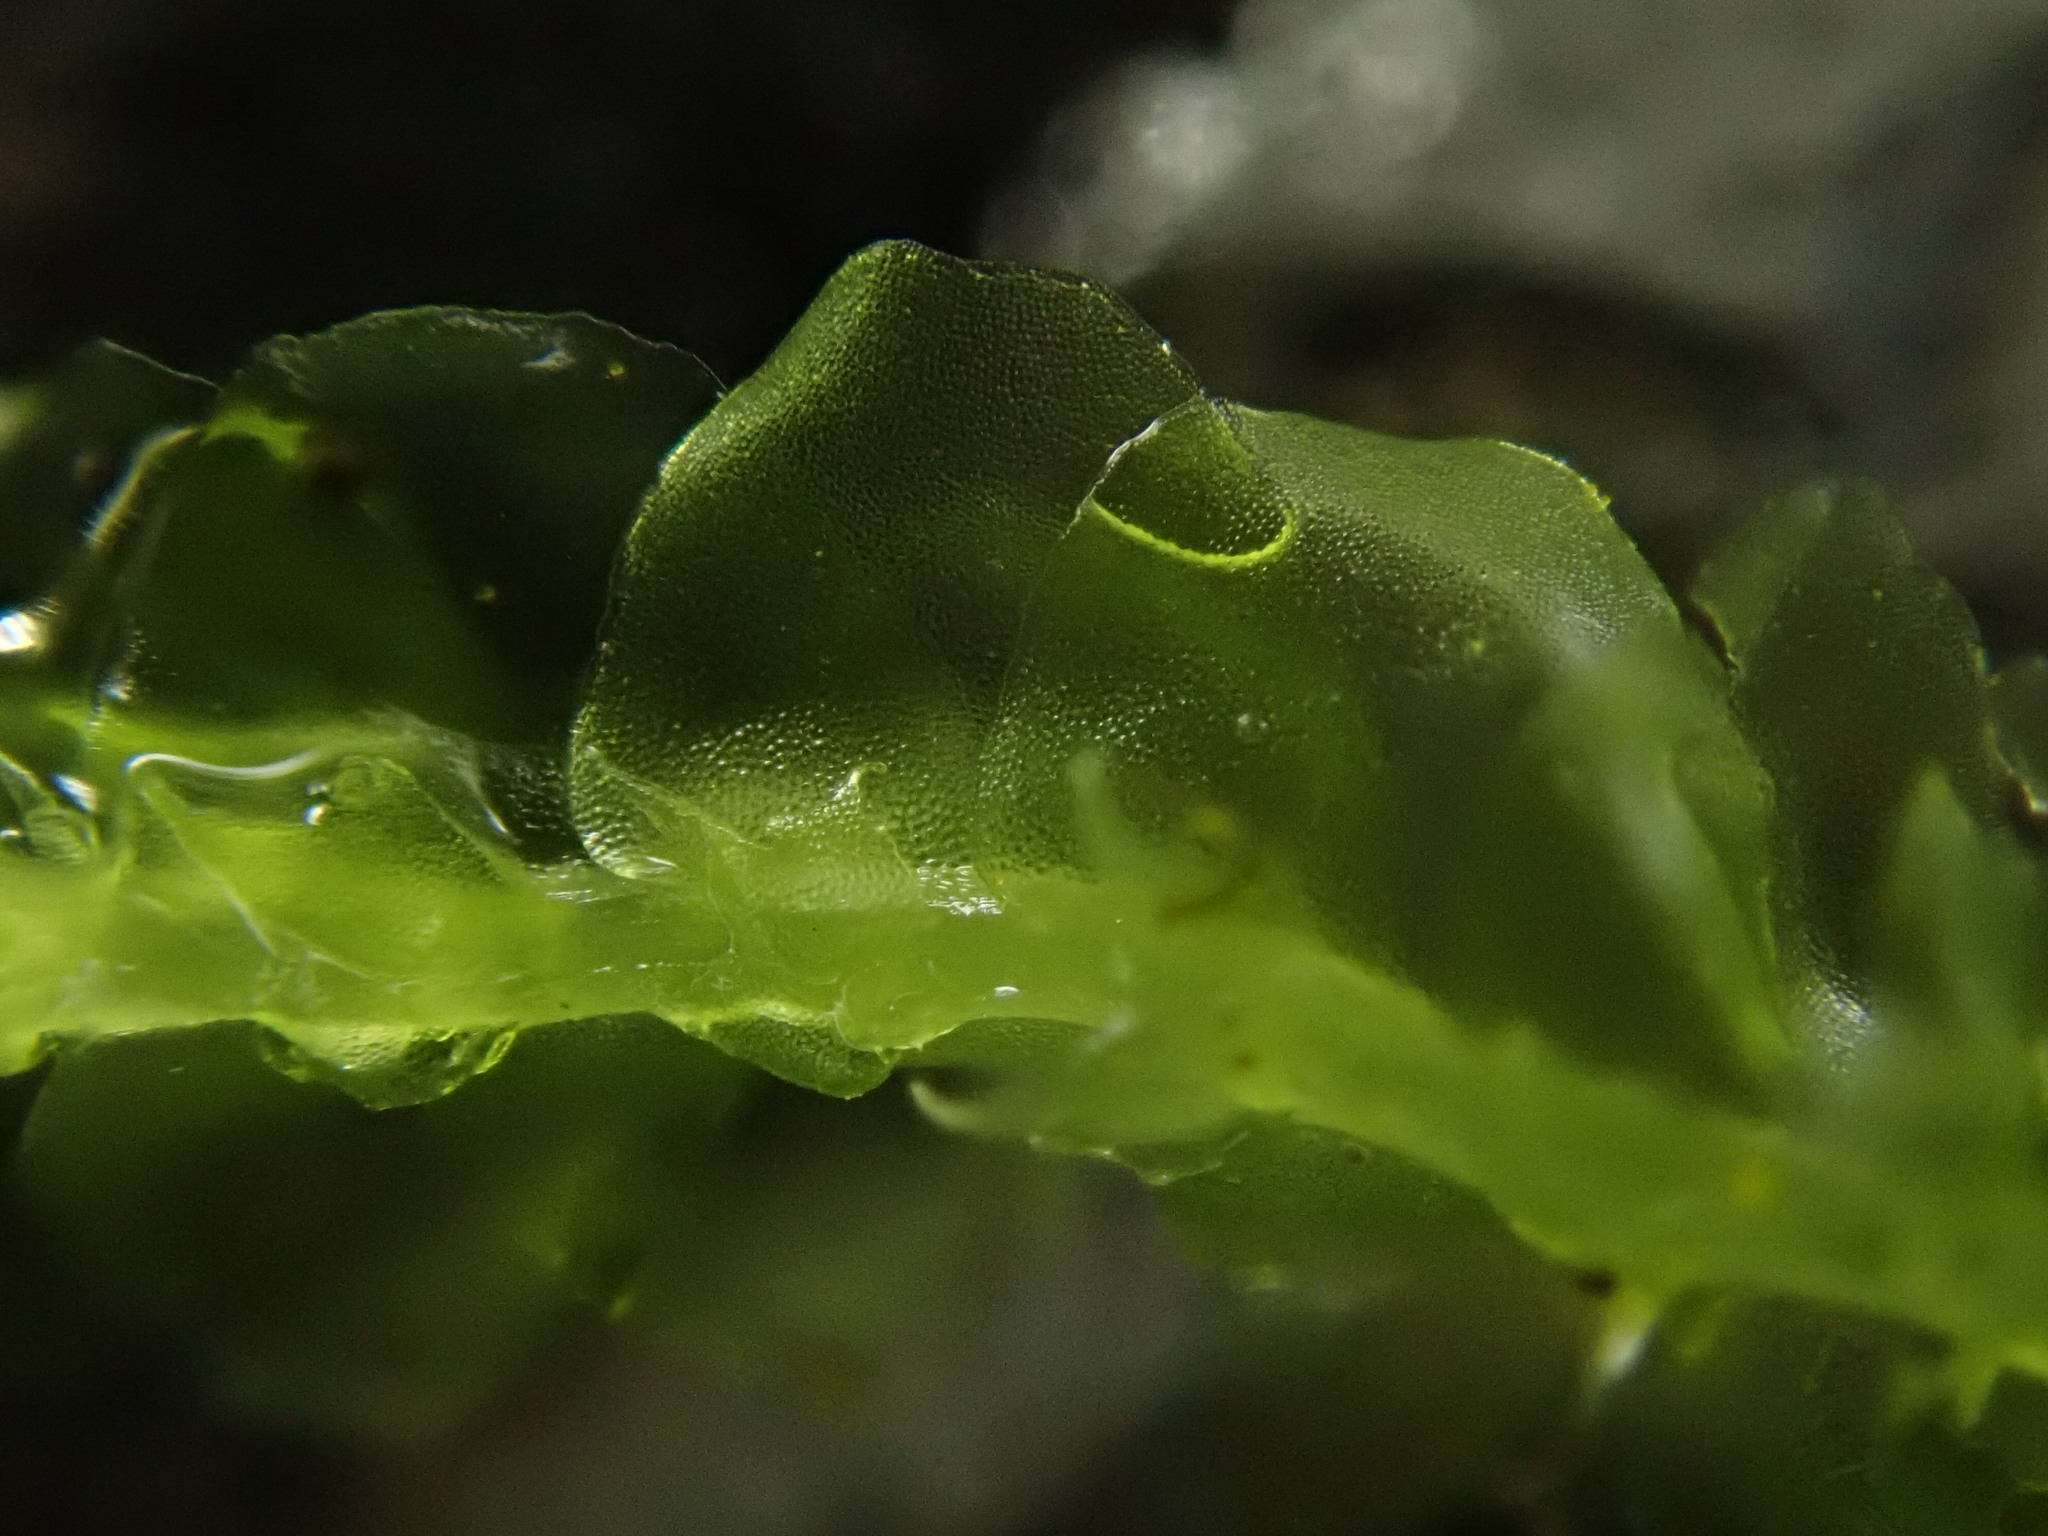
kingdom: Plantae
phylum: Marchantiophyta
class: Jungermanniopsida
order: Jungermanniales
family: Lophocoleaceae
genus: Lophocolea
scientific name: Lophocolea semiteres
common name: Southern crestwort
